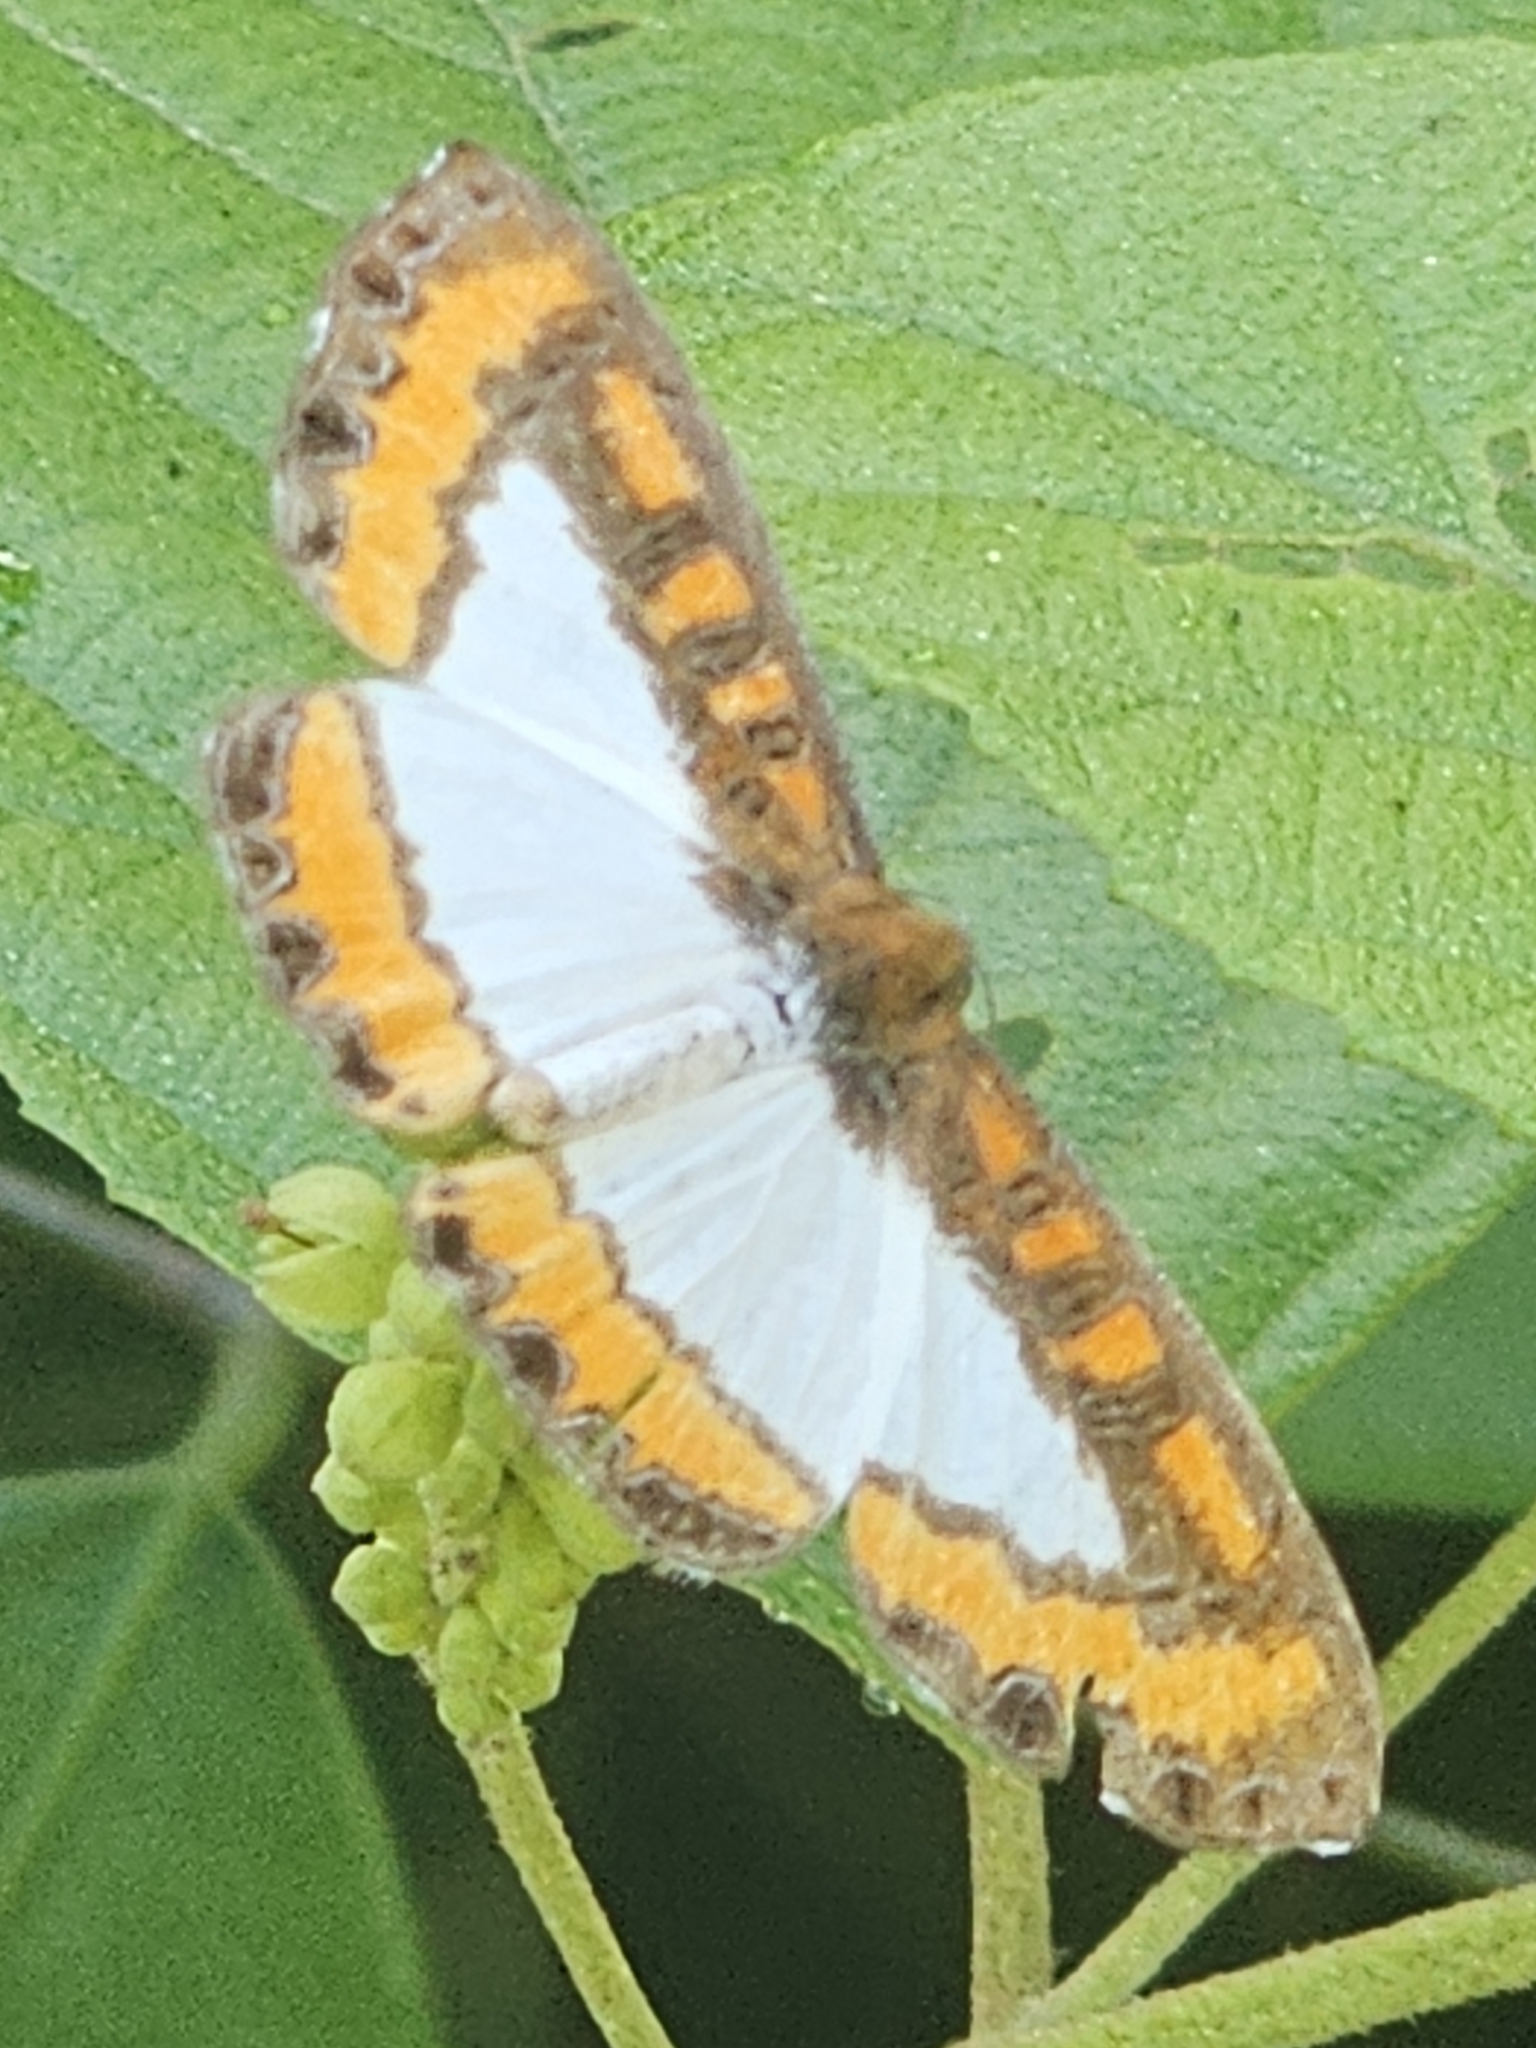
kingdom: Animalia
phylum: Arthropoda
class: Insecta
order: Lepidoptera
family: Riodinidae
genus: Nymula
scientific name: Nymula calyce
